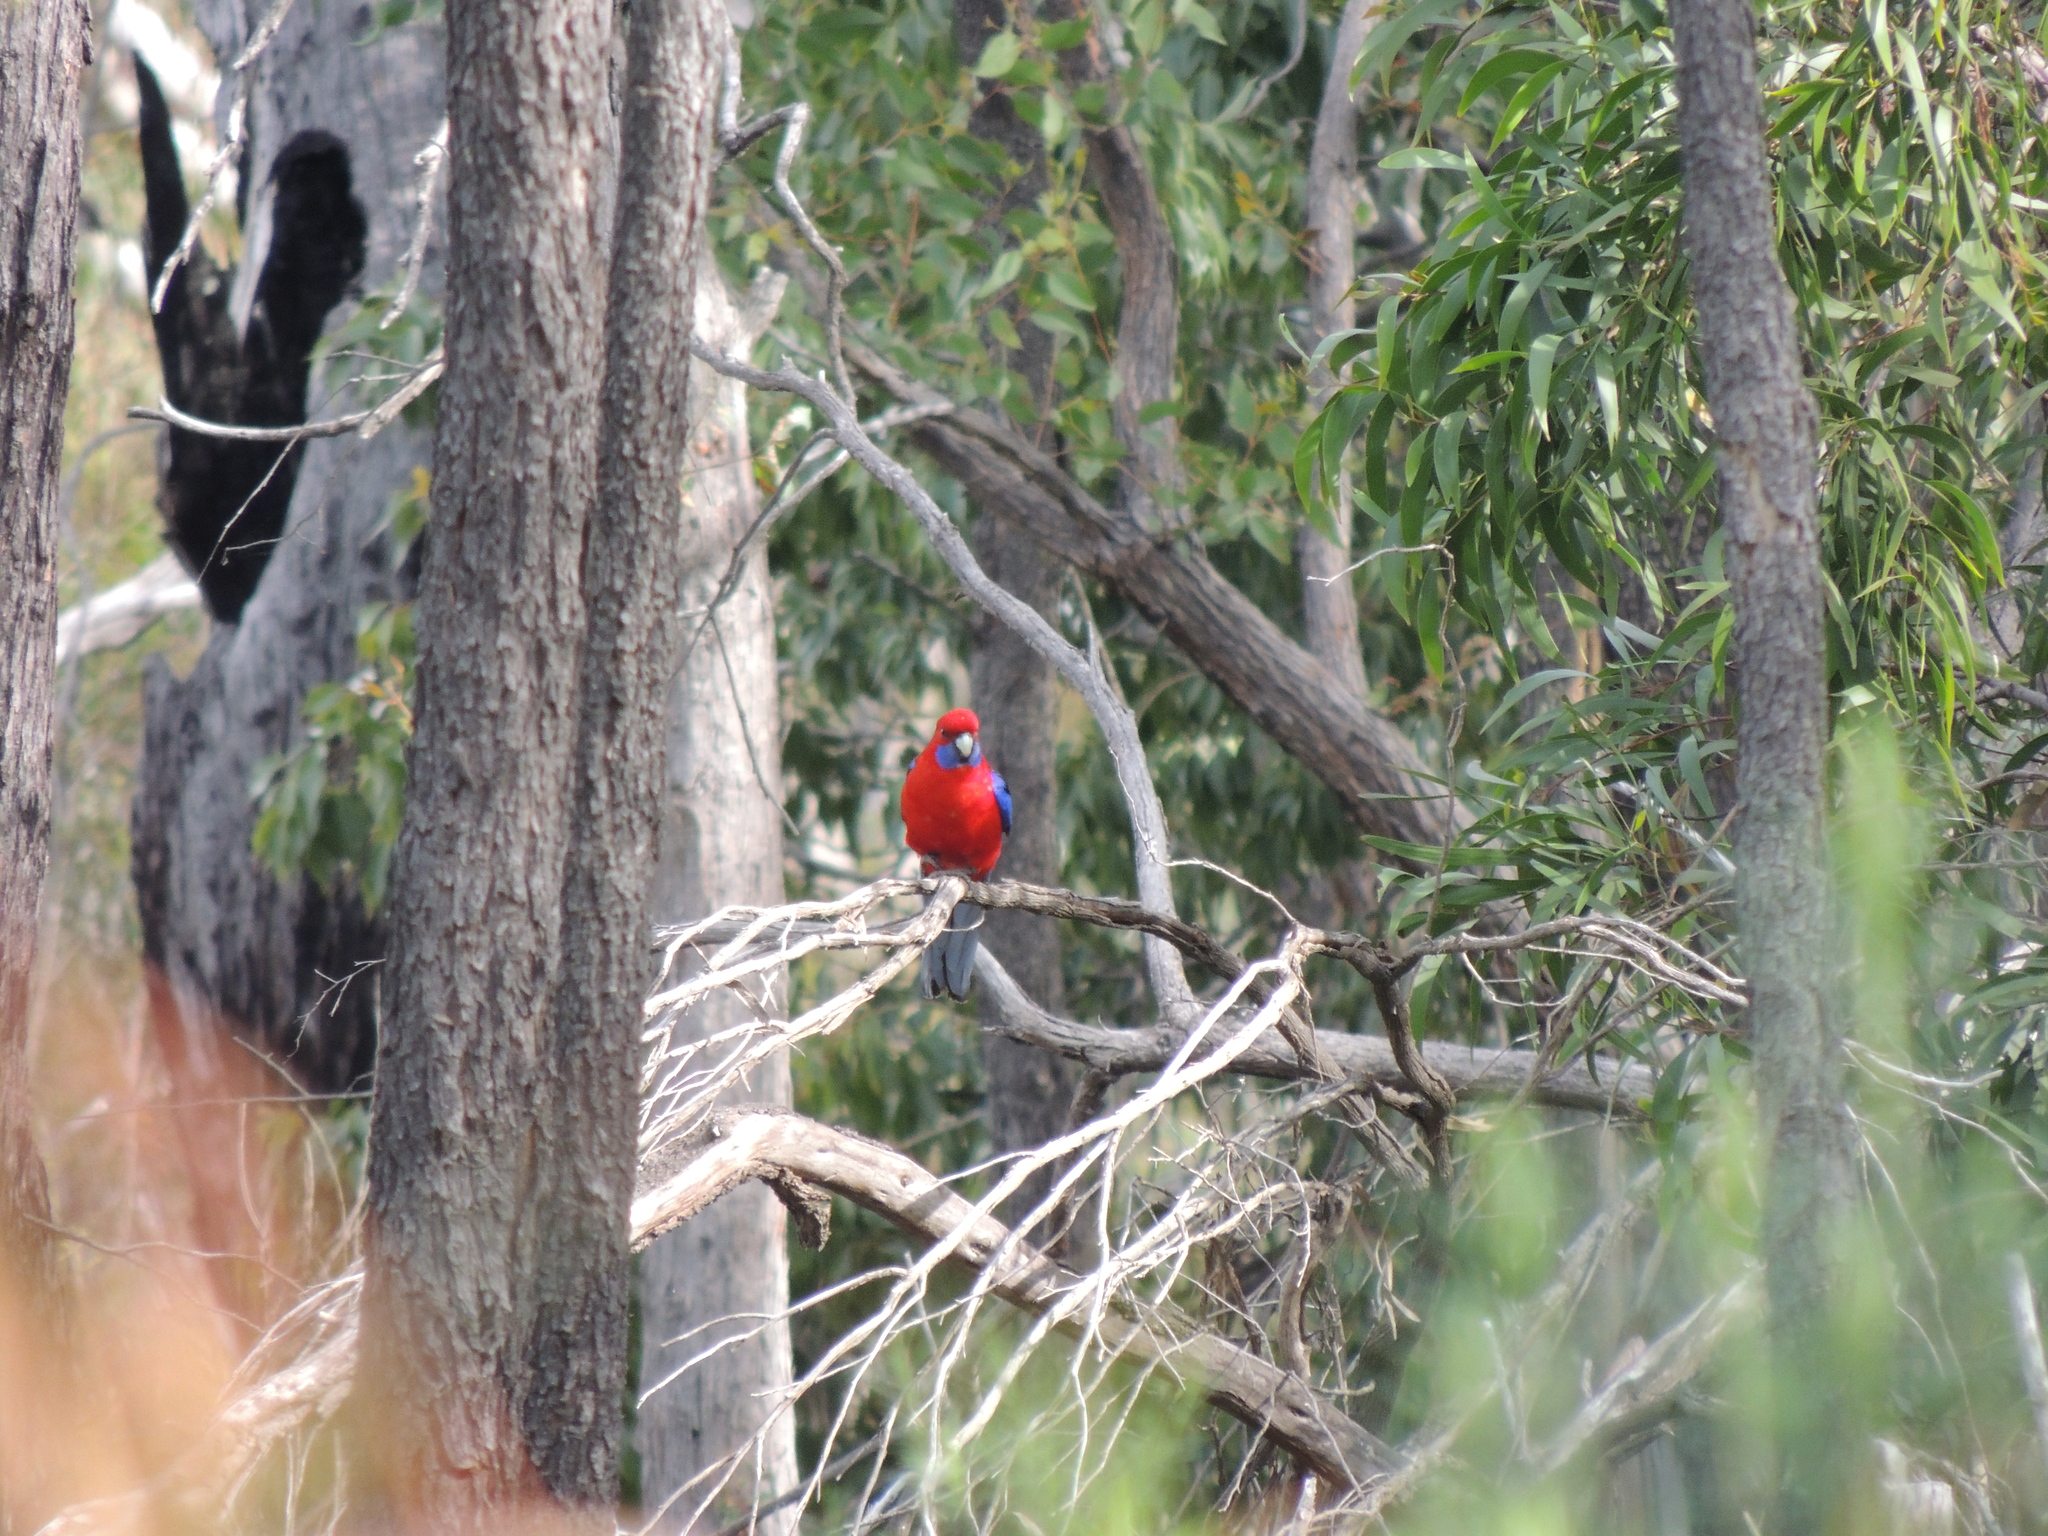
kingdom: Animalia
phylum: Chordata
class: Aves
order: Psittaciformes
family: Psittacidae
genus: Platycercus
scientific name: Platycercus elegans
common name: Crimson rosella
